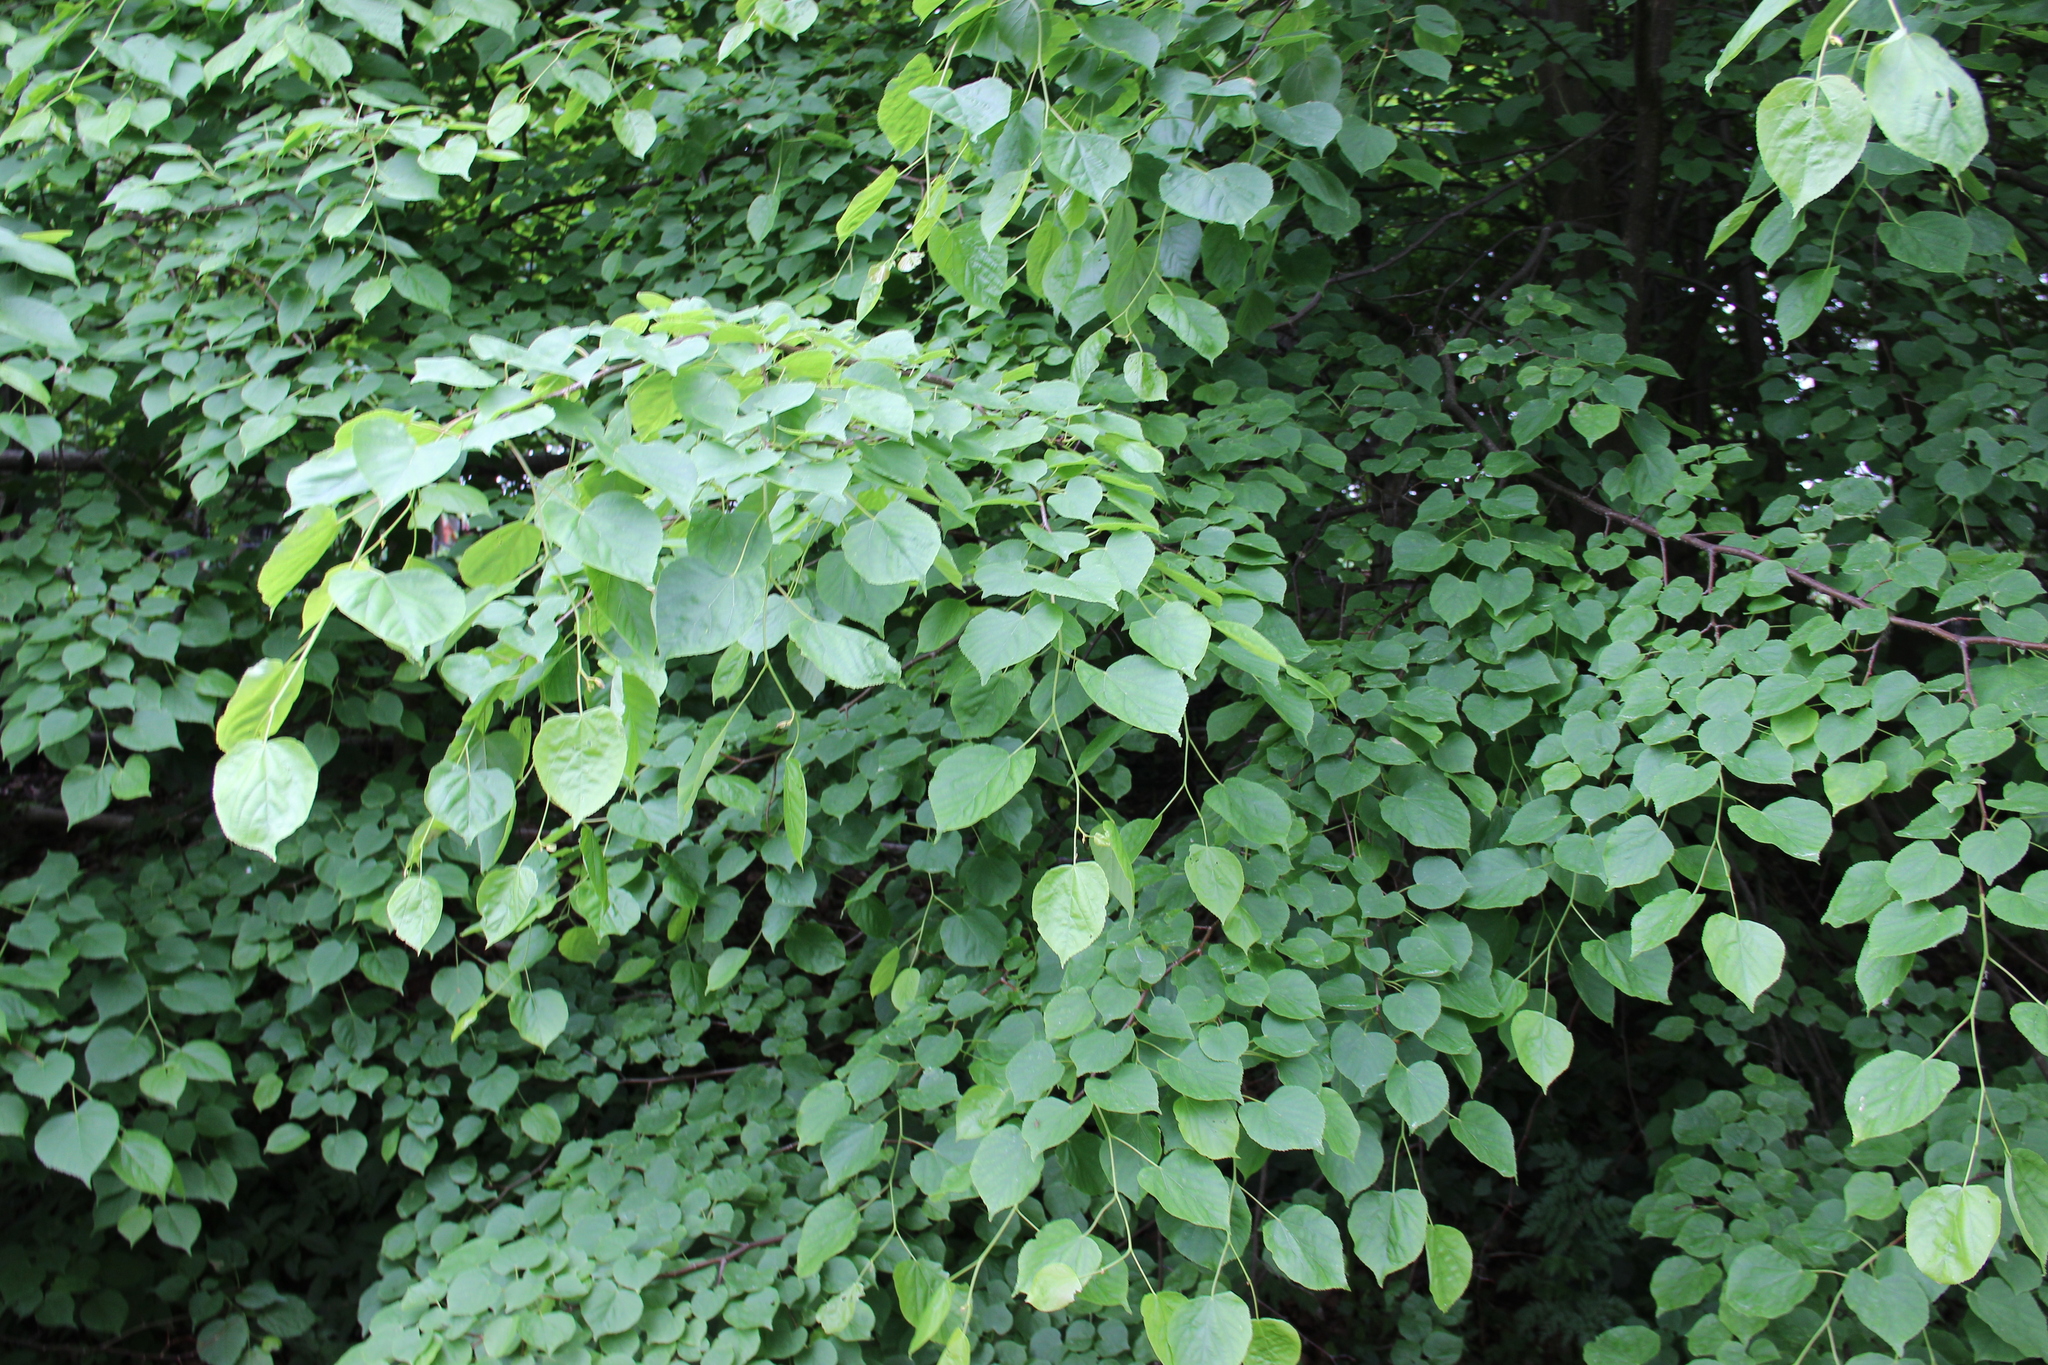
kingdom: Plantae
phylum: Tracheophyta
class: Magnoliopsida
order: Malvales
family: Malvaceae
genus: Tilia
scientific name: Tilia cordata
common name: Small-leaved lime
